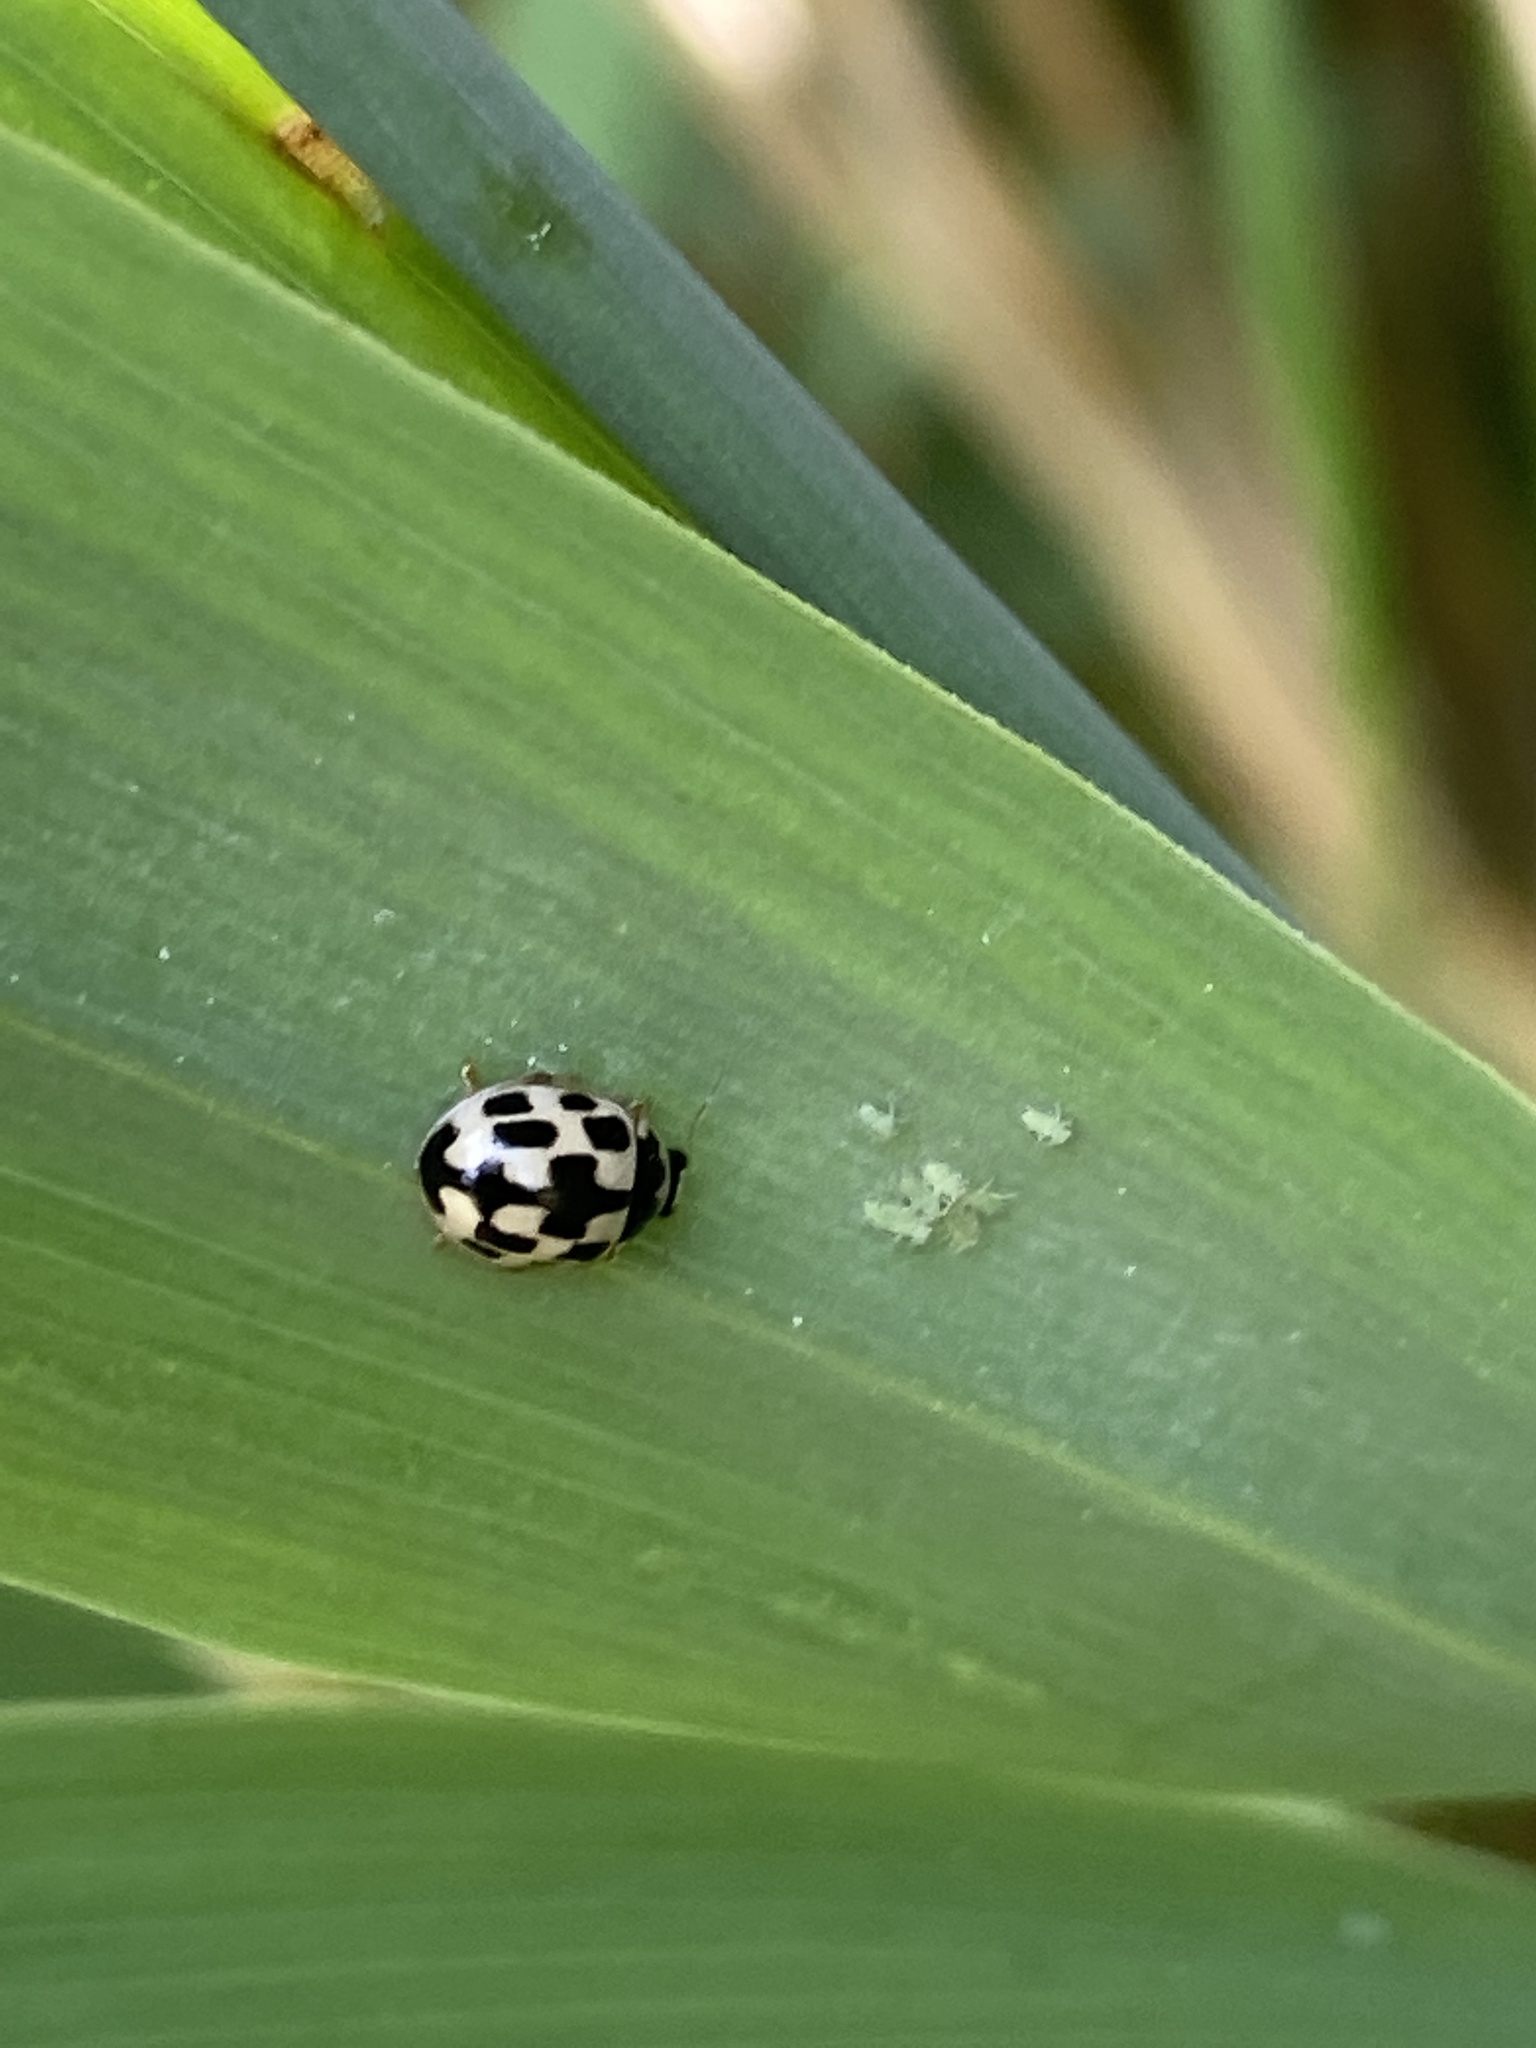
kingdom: Animalia
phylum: Arthropoda
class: Insecta
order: Coleoptera
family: Coccinellidae
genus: Propylaea
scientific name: Propylaea quatuordecimpunctata
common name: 14-spotted ladybird beetle
